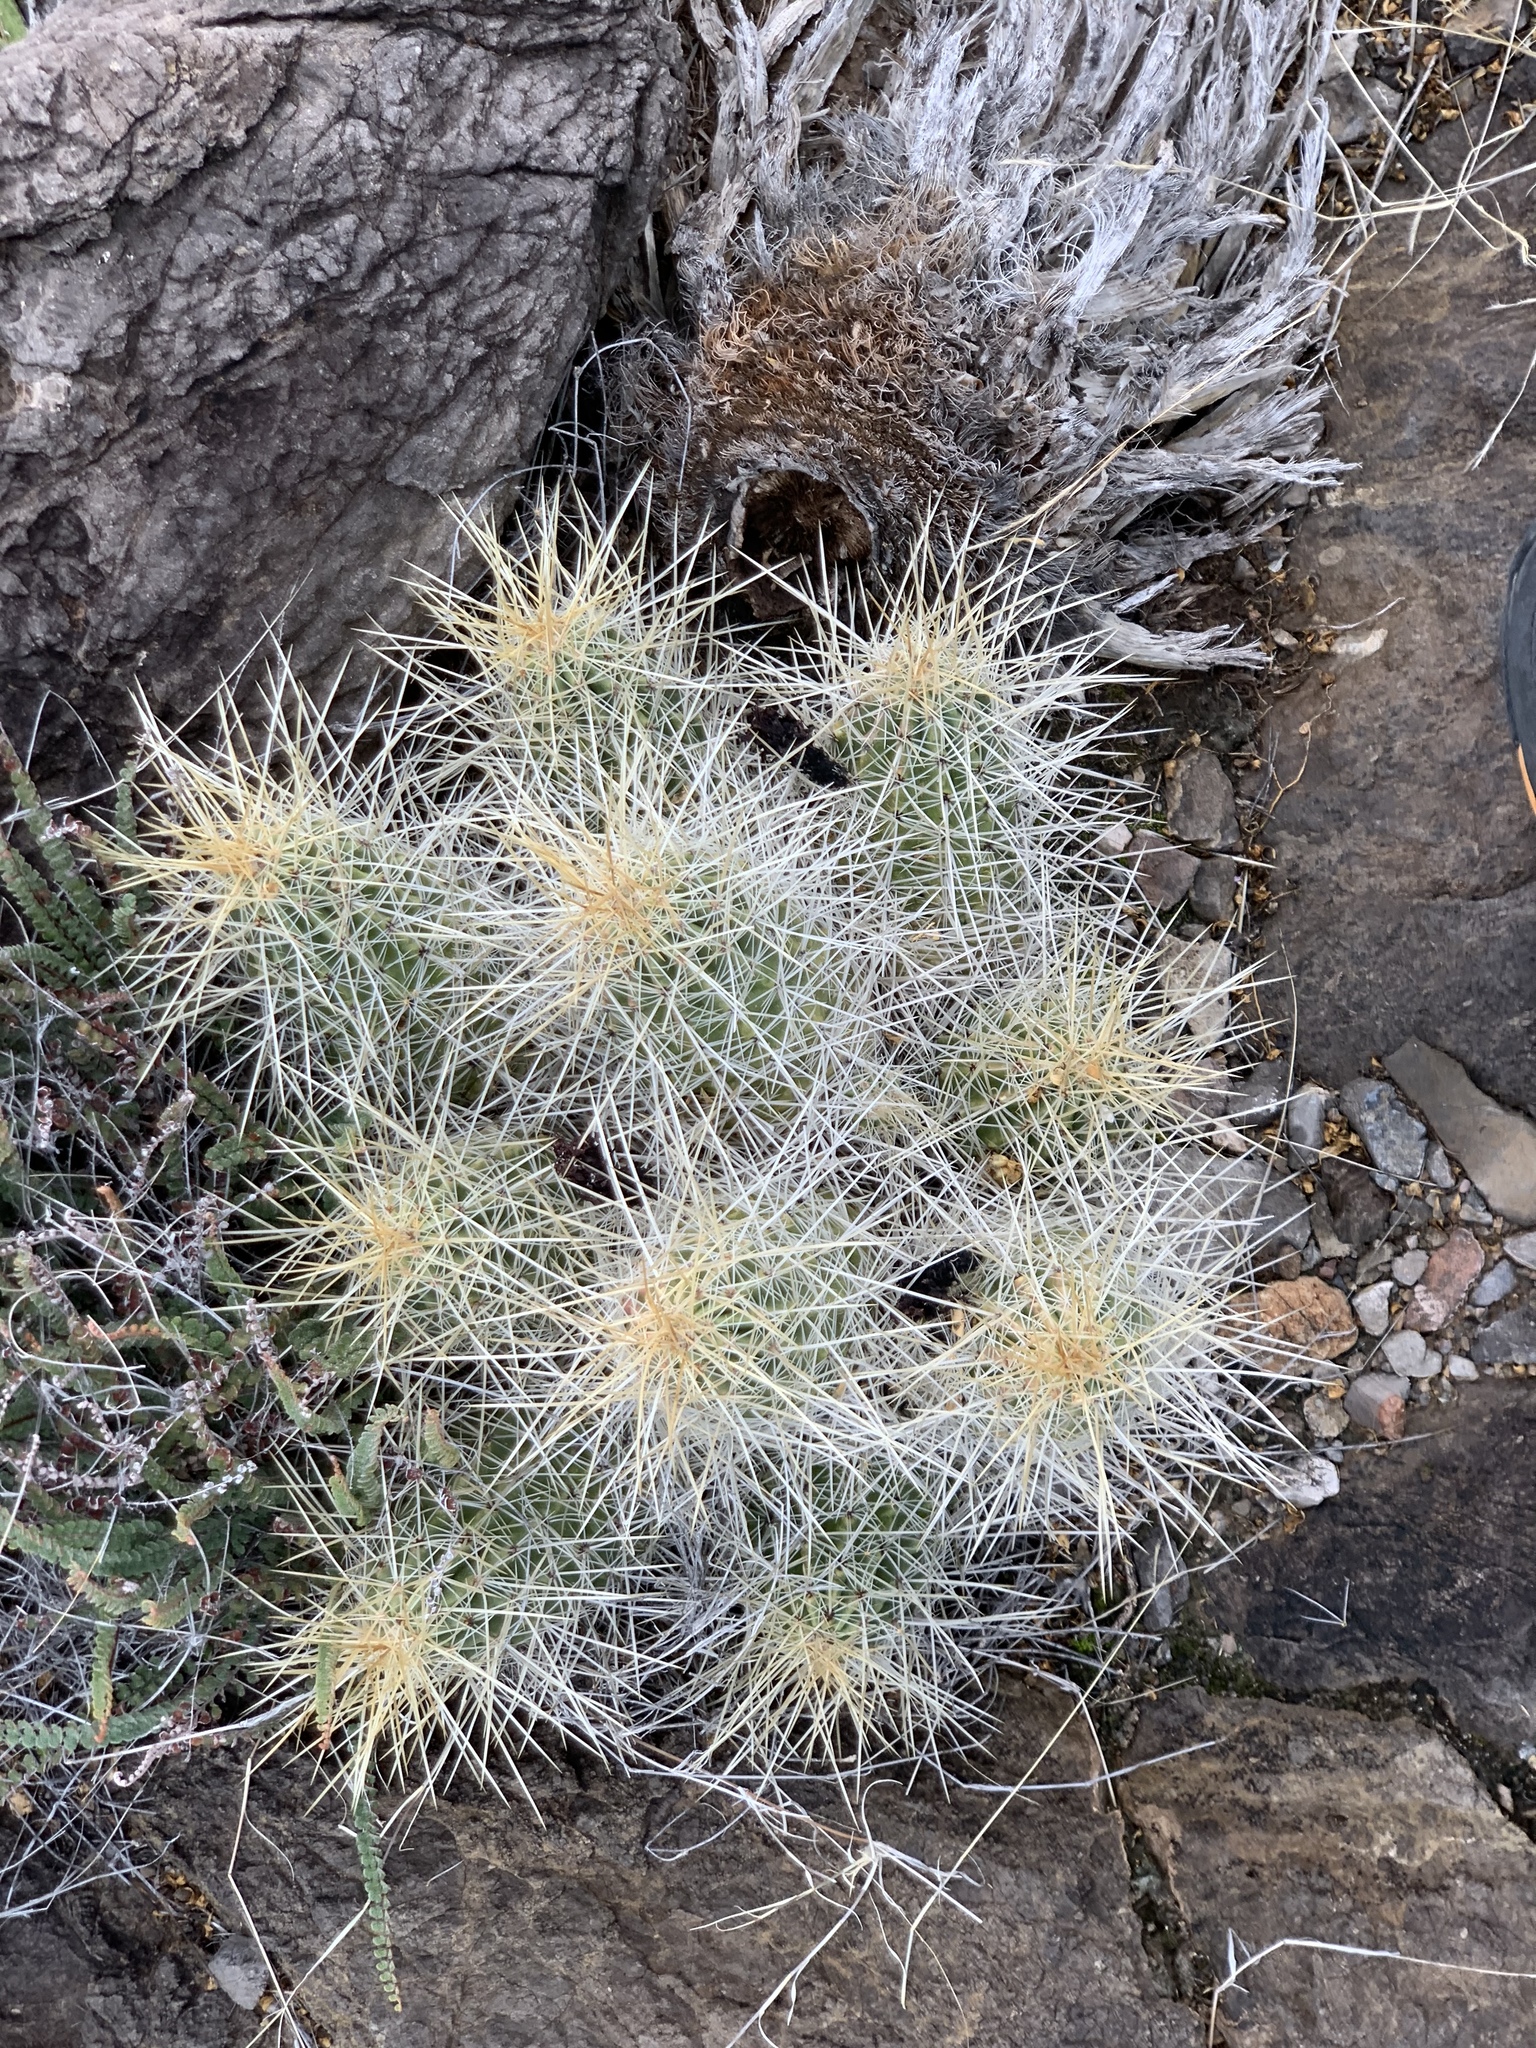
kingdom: Plantae
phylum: Tracheophyta
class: Magnoliopsida
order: Caryophyllales
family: Cactaceae
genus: Echinocereus
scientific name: Echinocereus stramineus
